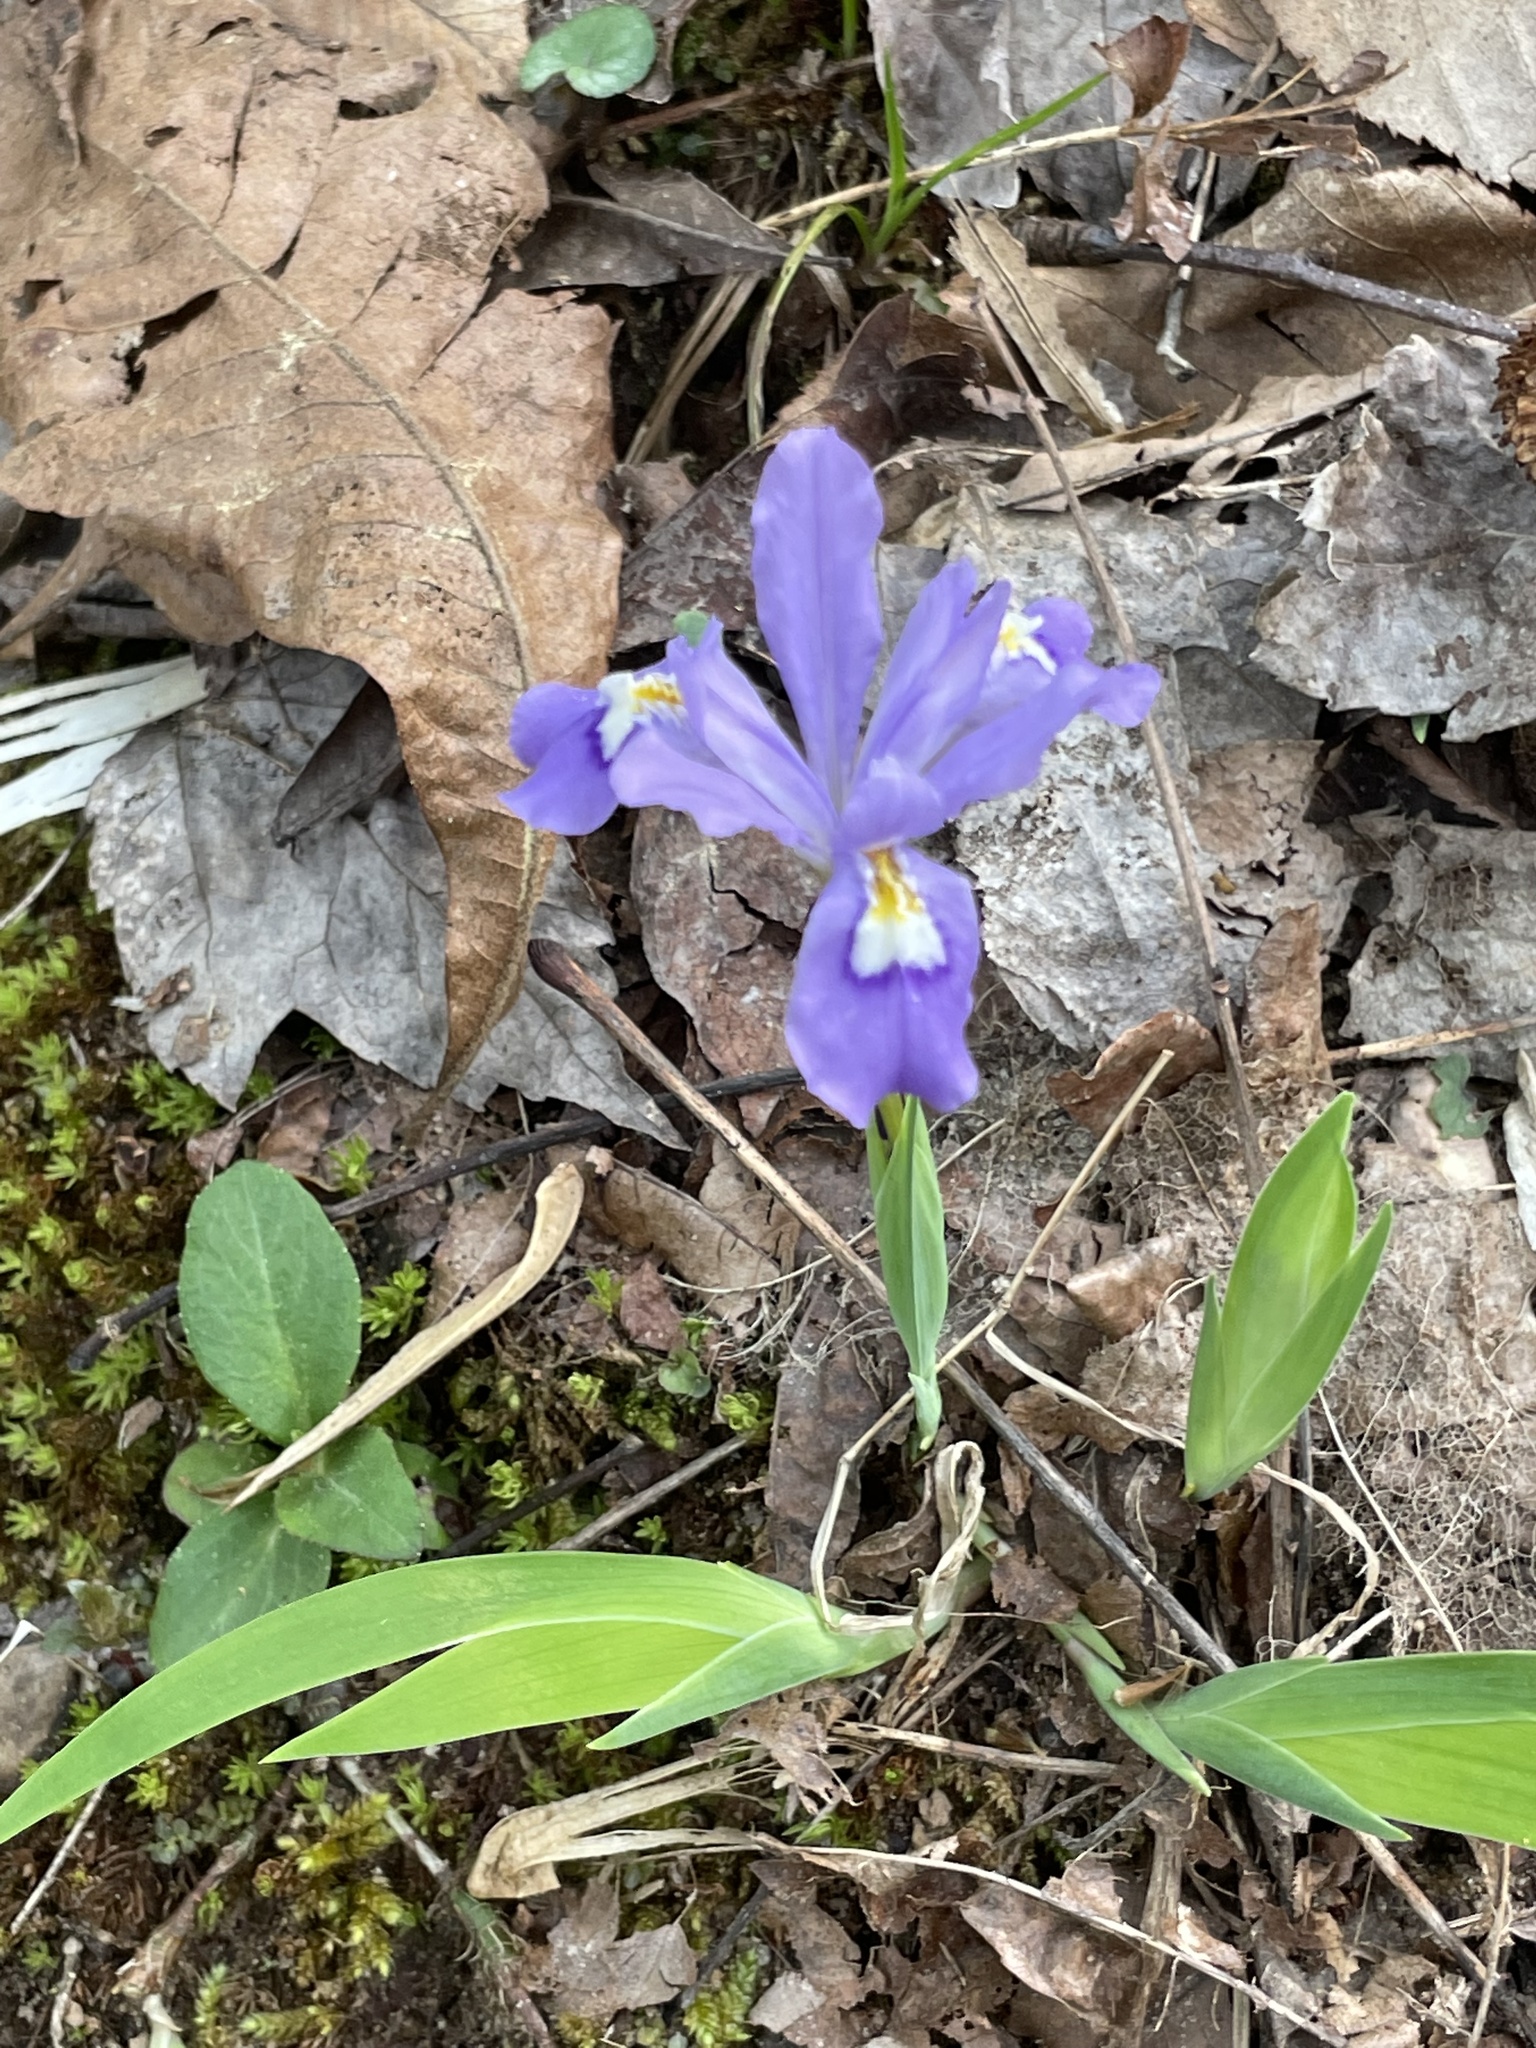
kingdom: Plantae
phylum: Tracheophyta
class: Liliopsida
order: Asparagales
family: Iridaceae
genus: Iris
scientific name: Iris cristata
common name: Crested iris
